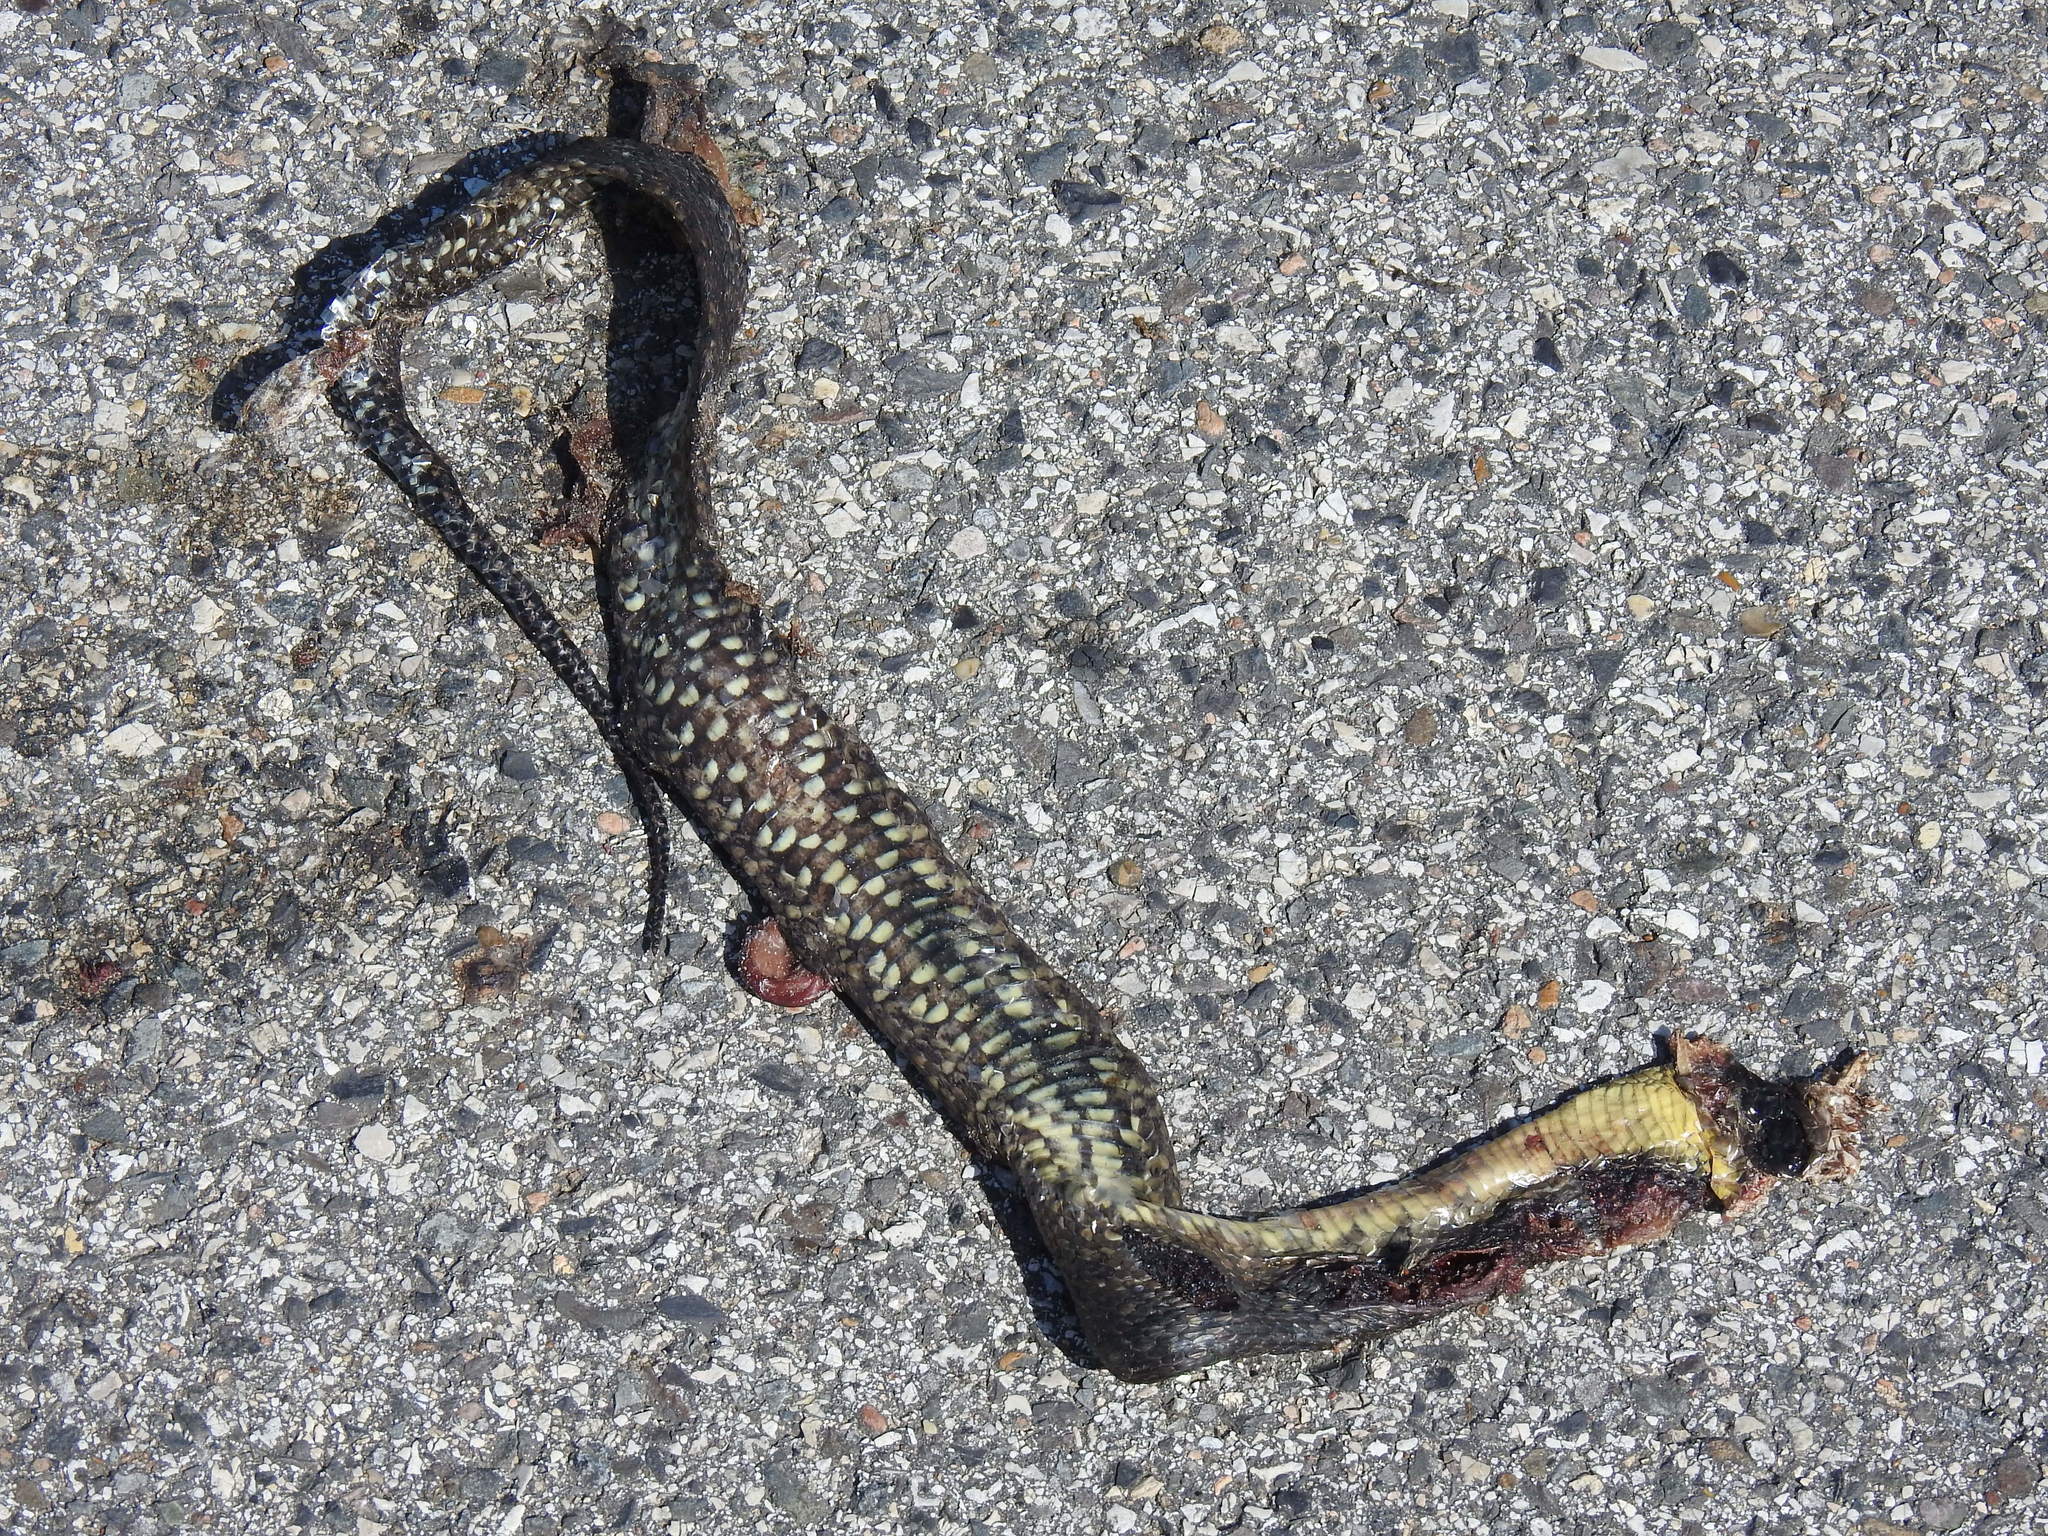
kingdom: Animalia
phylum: Chordata
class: Squamata
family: Colubridae
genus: Nerodia
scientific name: Nerodia cyclopion
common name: Mississippi green water snake
